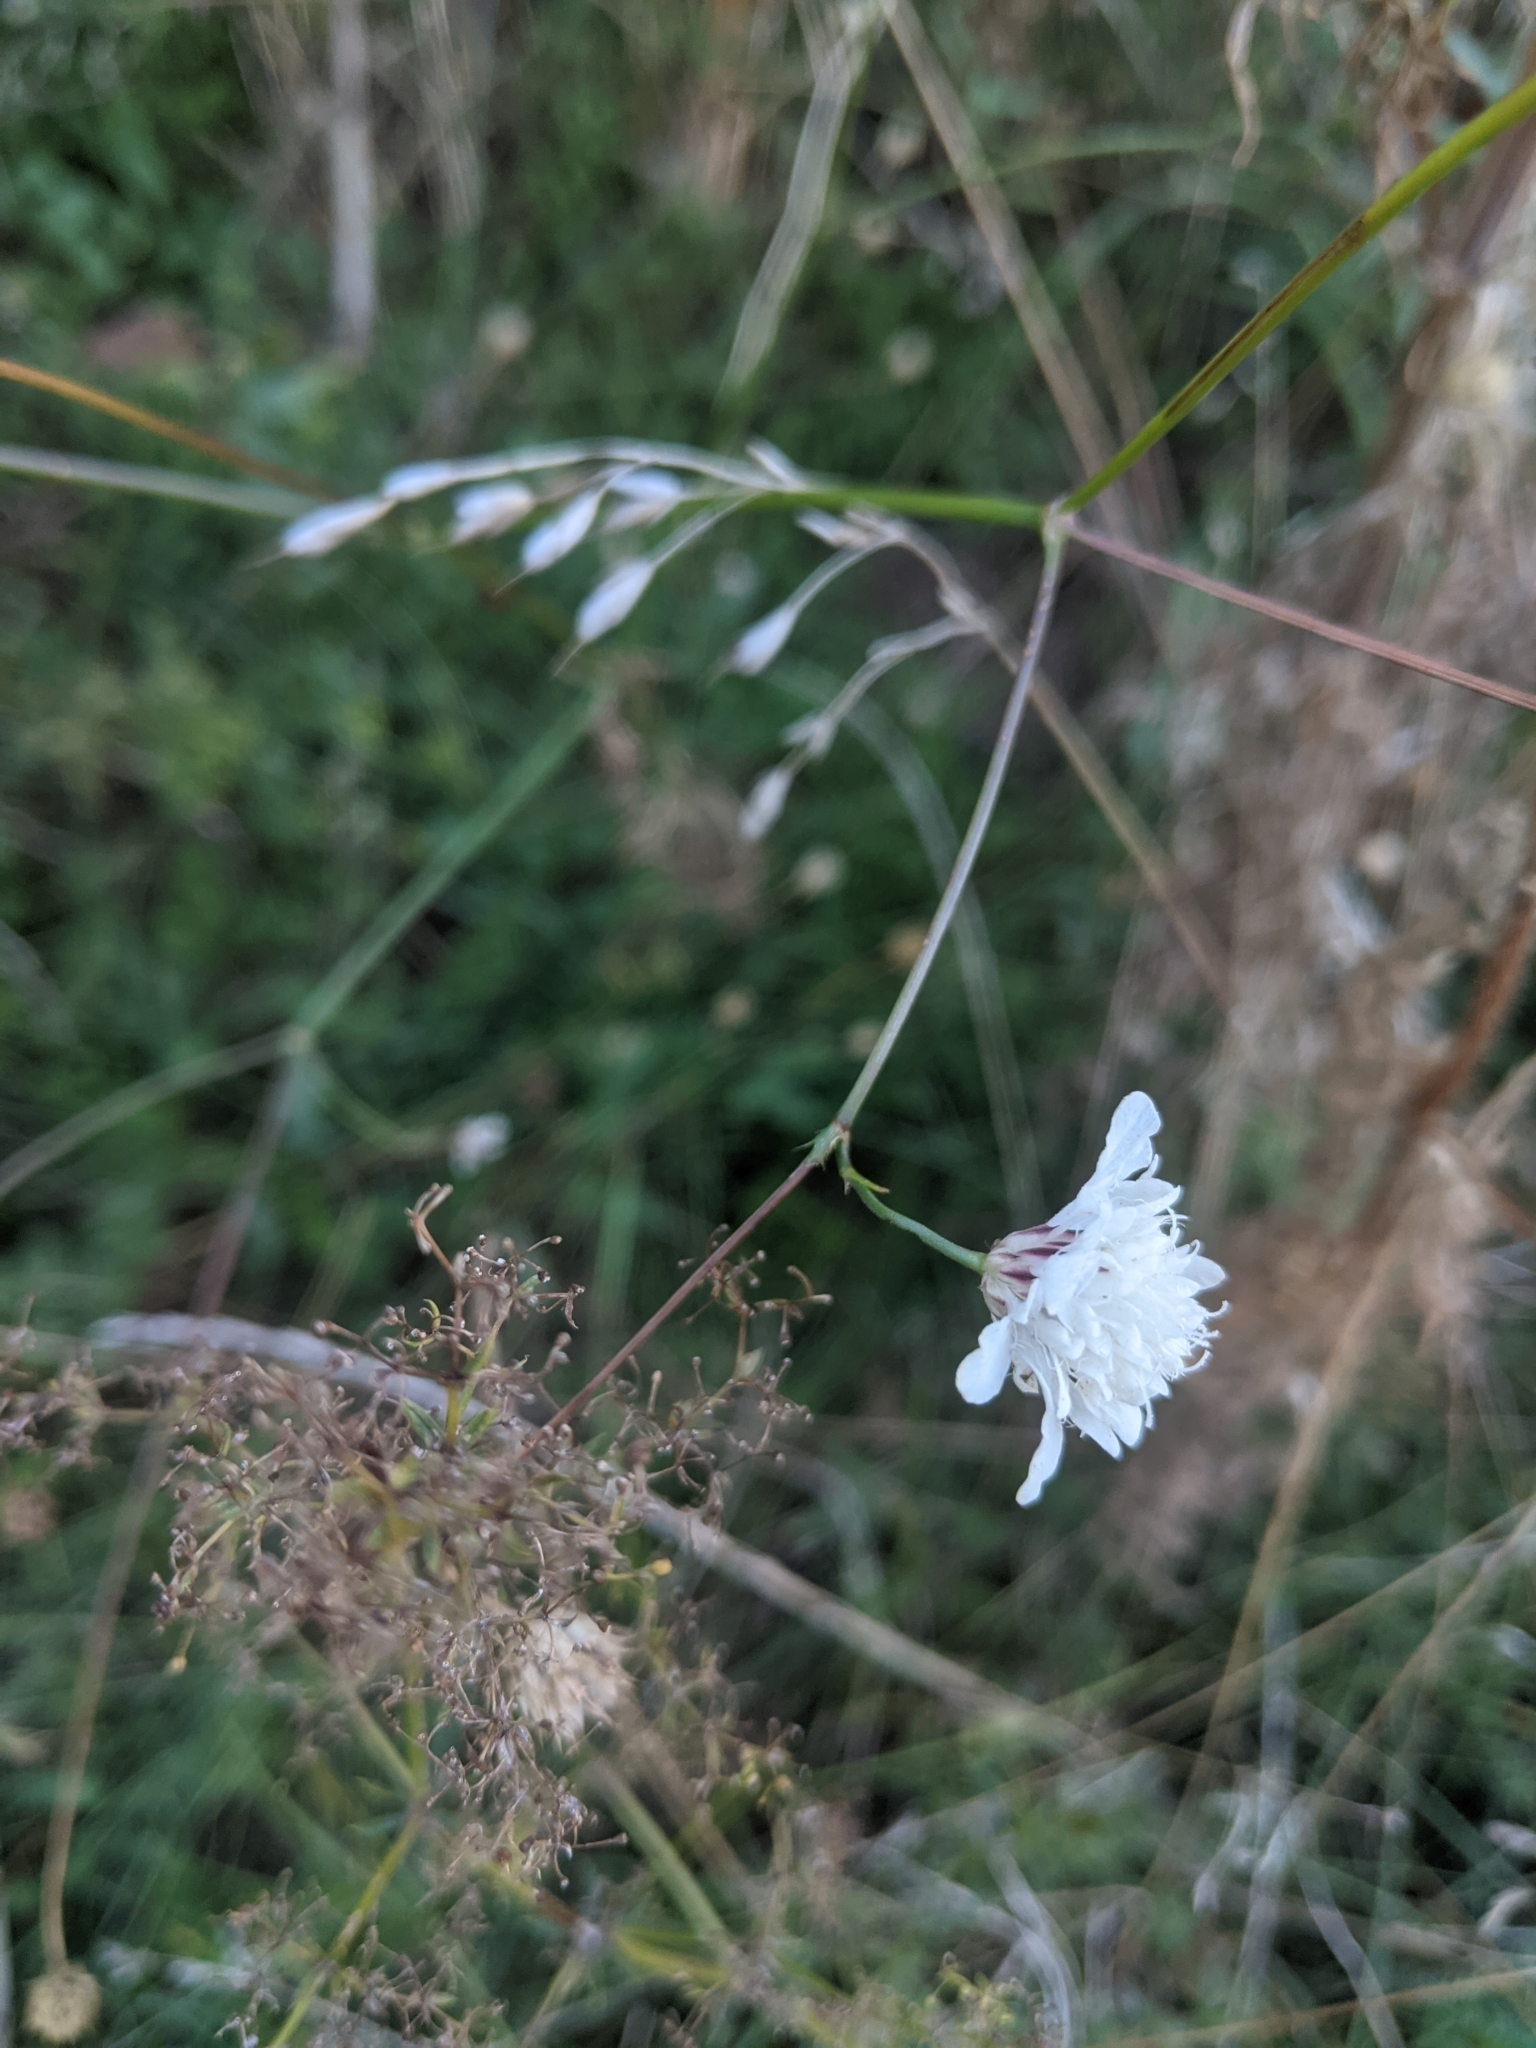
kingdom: Plantae
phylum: Tracheophyta
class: Magnoliopsida
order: Dipsacales
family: Caprifoliaceae
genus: Cephalaria
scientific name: Cephalaria transsylvanica
